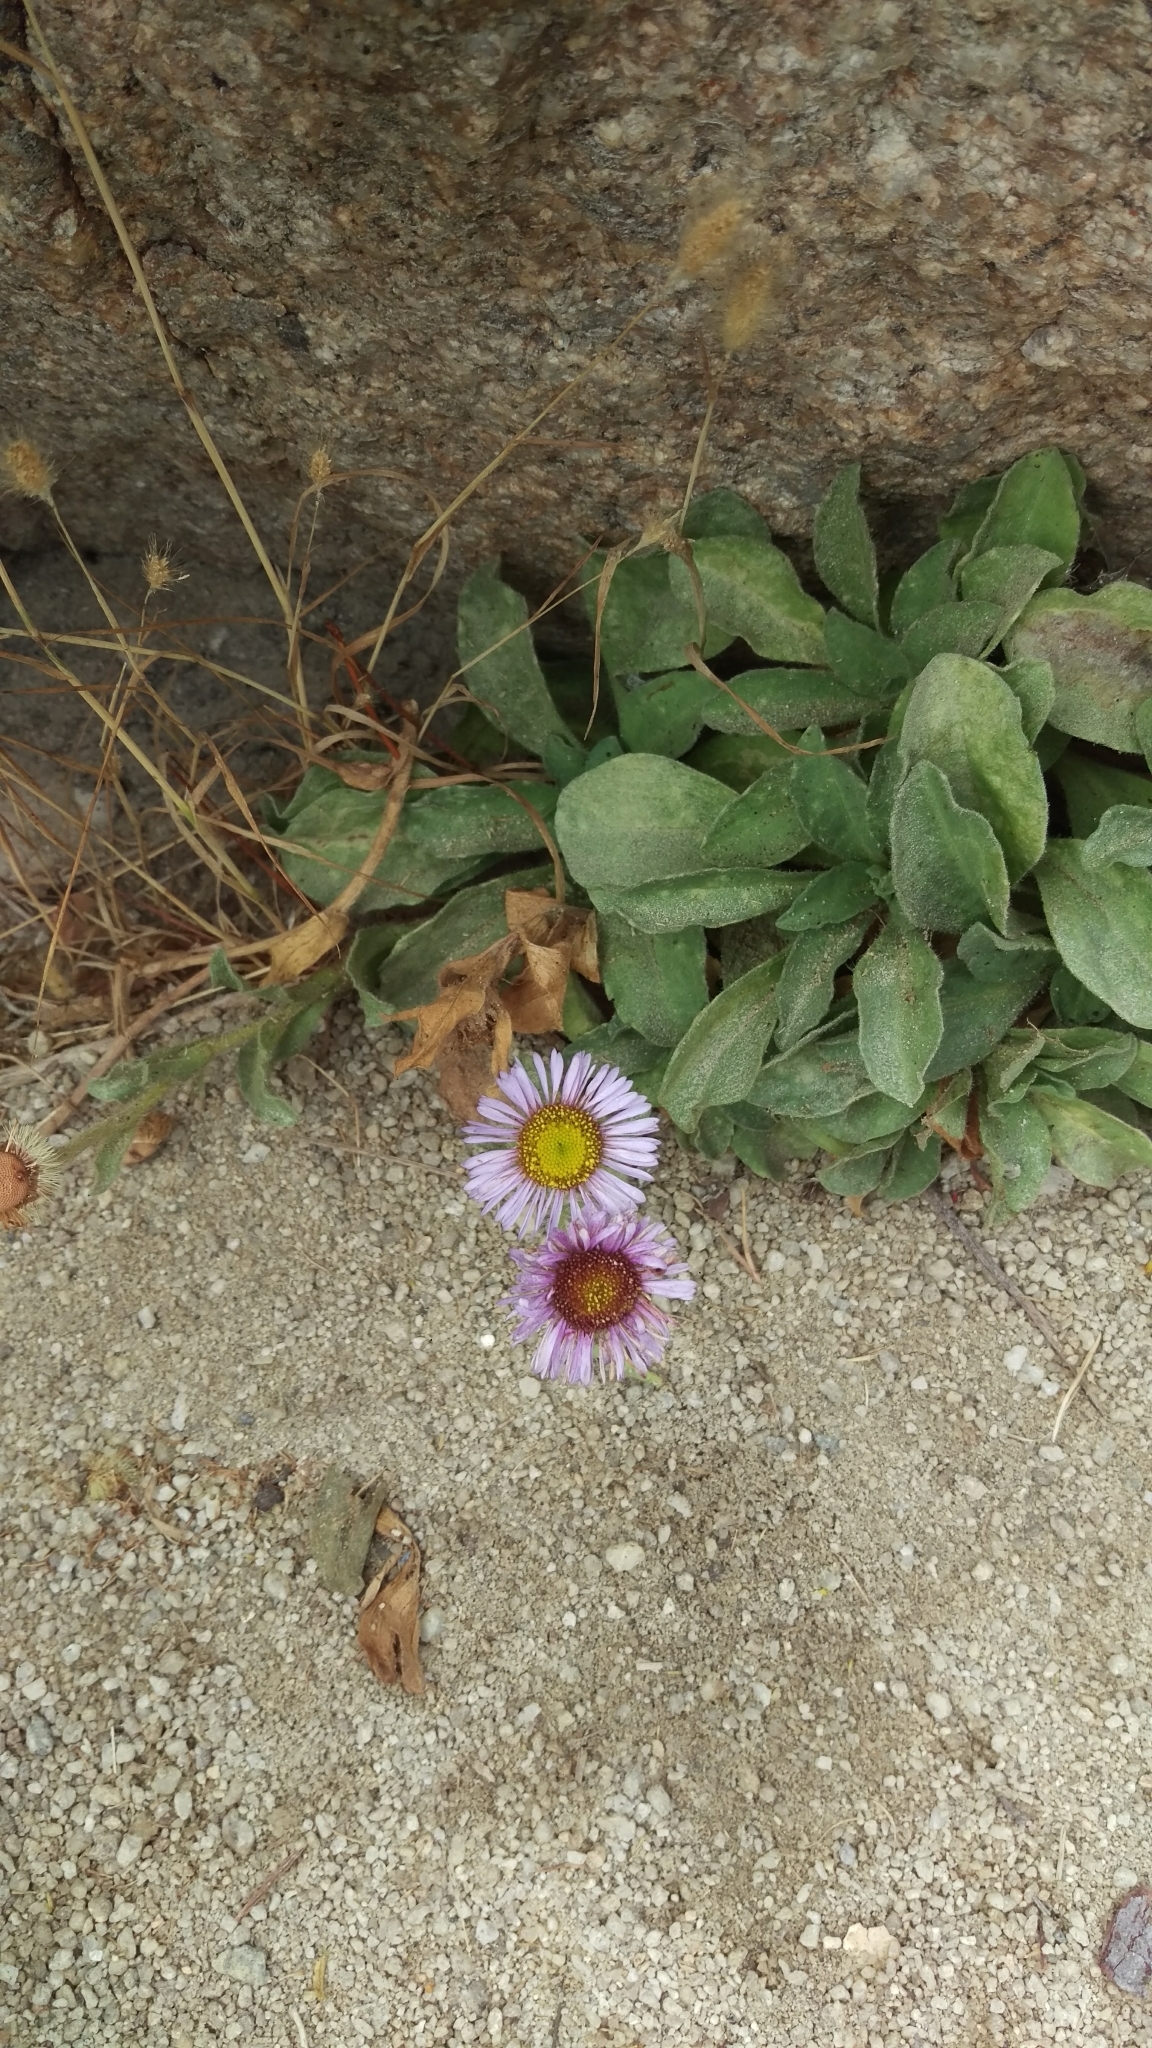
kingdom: Plantae
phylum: Tracheophyta
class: Magnoliopsida
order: Asterales
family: Asteraceae
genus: Erigeron
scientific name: Erigeron glaucus
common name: Seaside daisy
